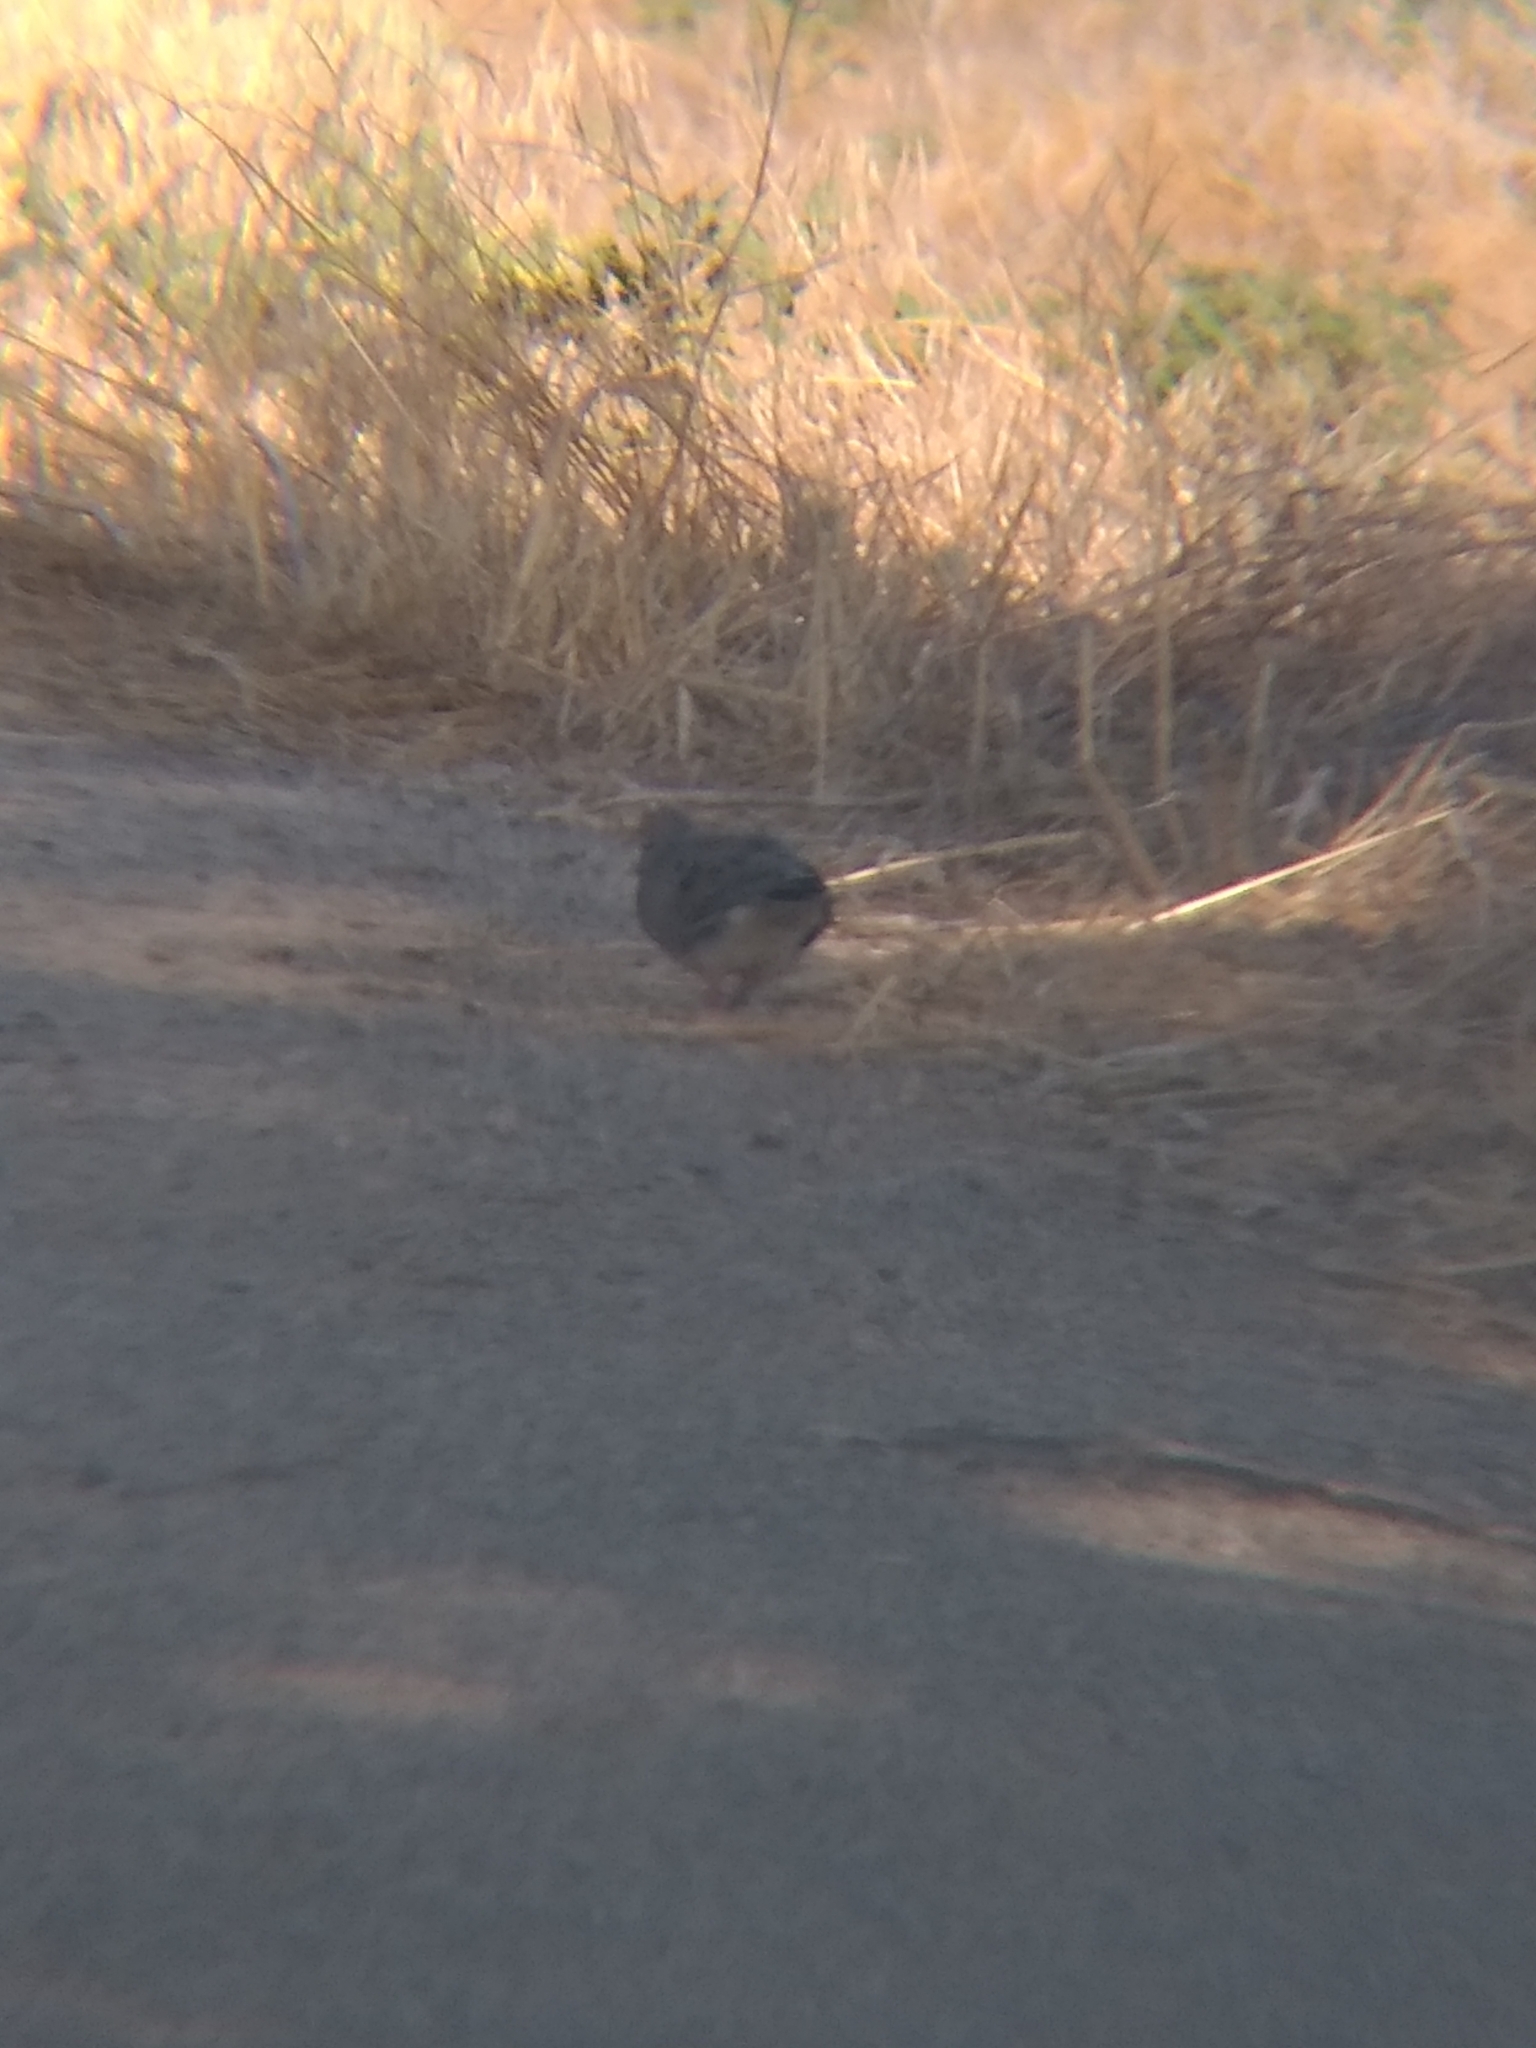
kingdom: Animalia
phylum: Chordata
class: Aves
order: Columbiformes
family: Columbidae
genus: Zenaida
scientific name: Zenaida macroura
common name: Mourning dove
